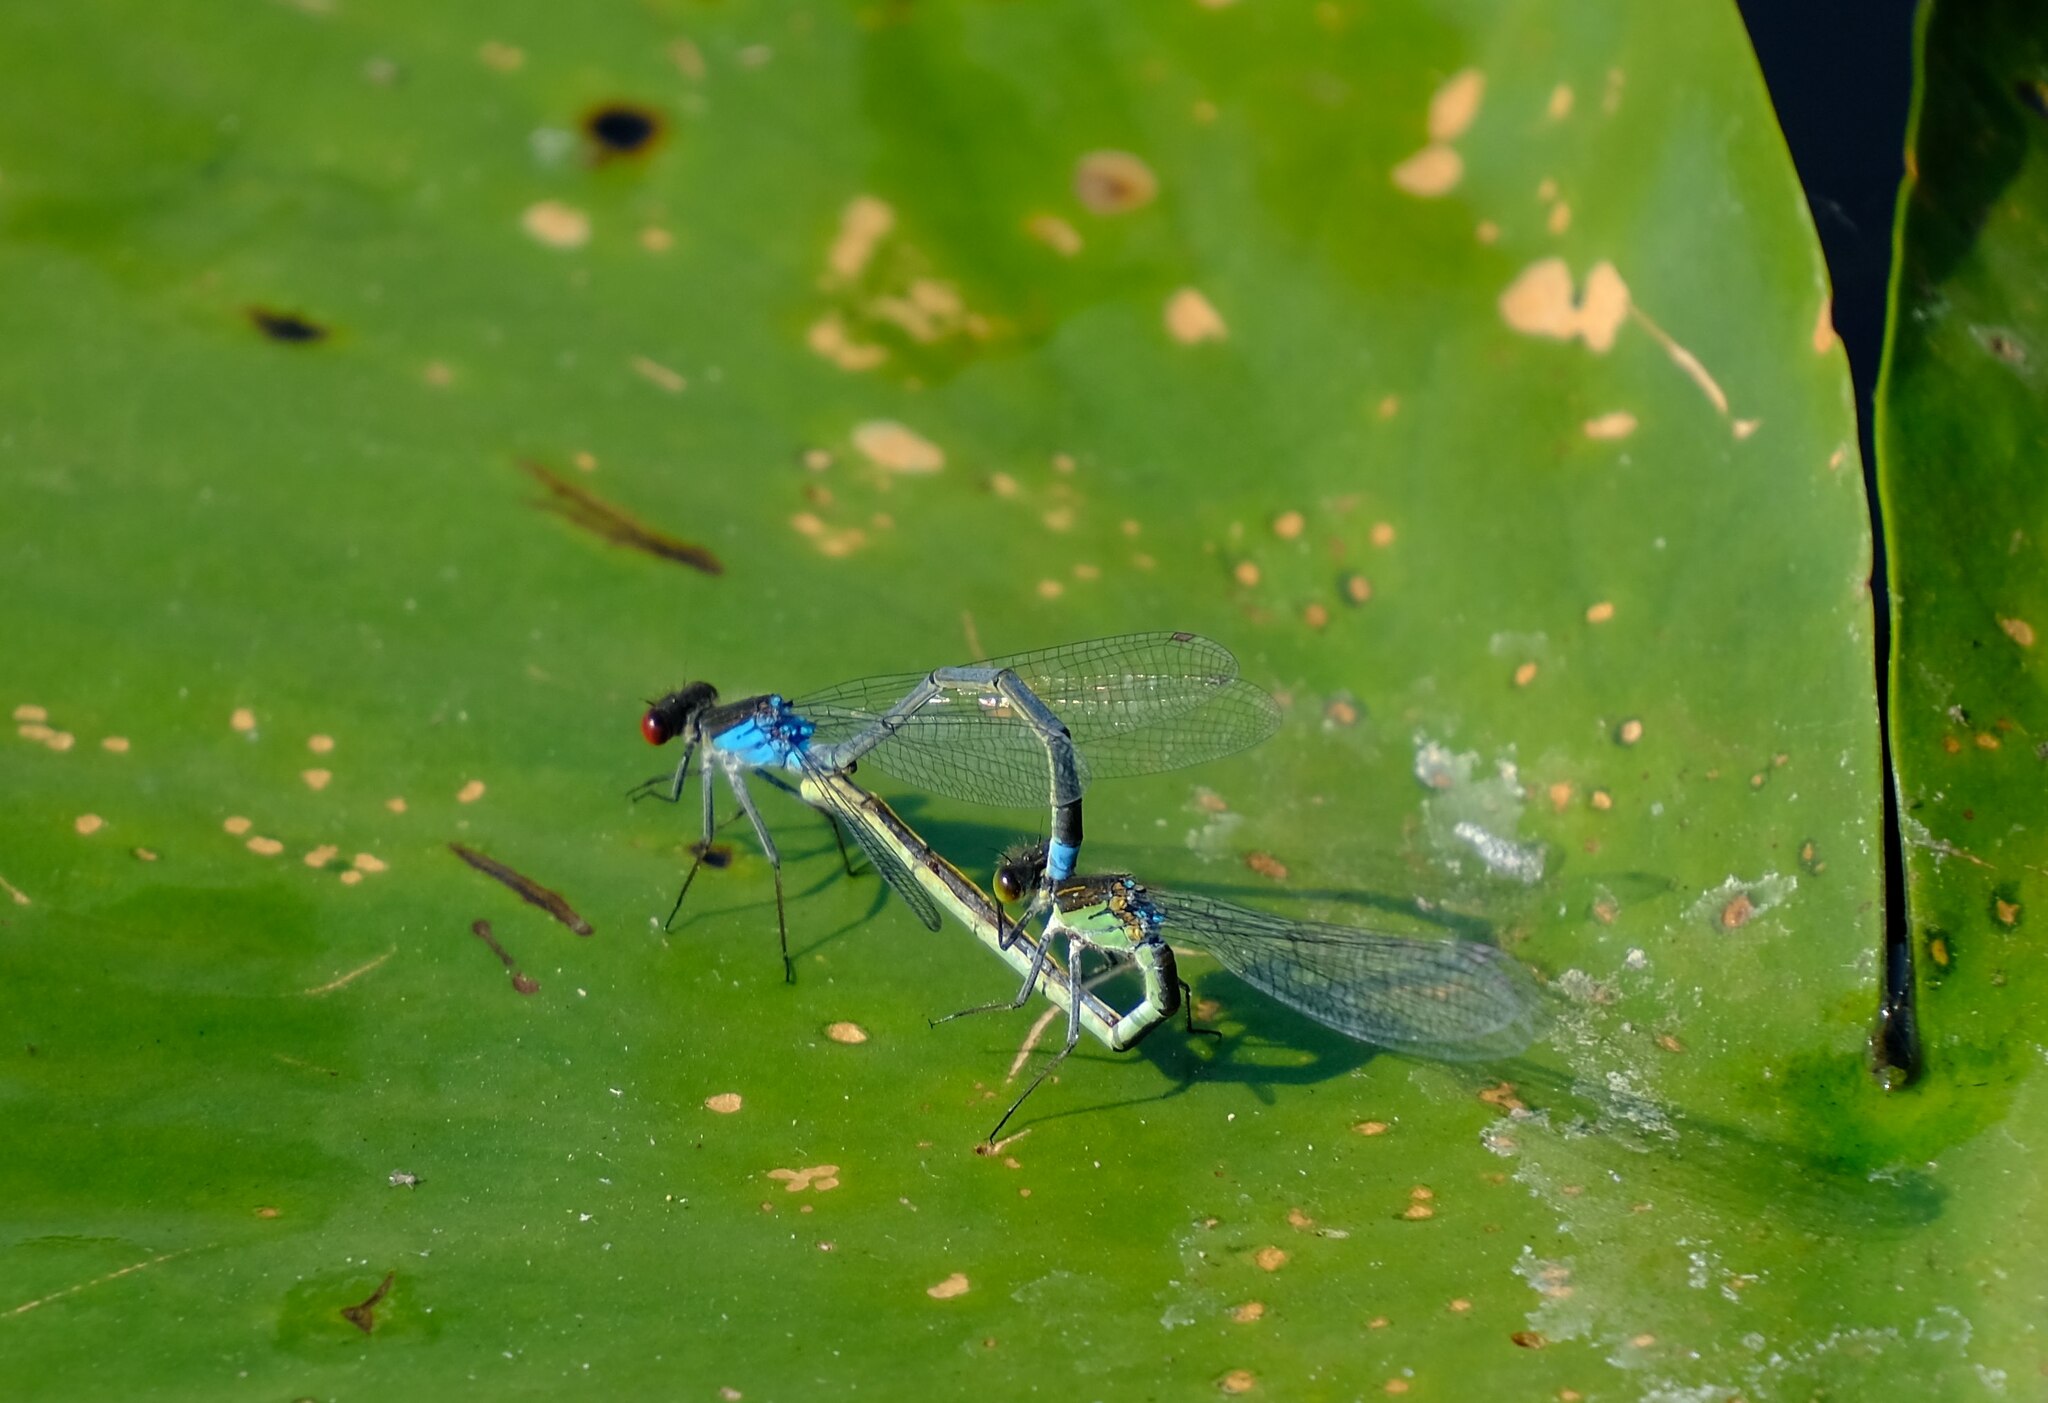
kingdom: Animalia
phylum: Arthropoda
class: Insecta
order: Odonata
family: Coenagrionidae
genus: Erythromma
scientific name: Erythromma najas
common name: Red-eyed damselfly
